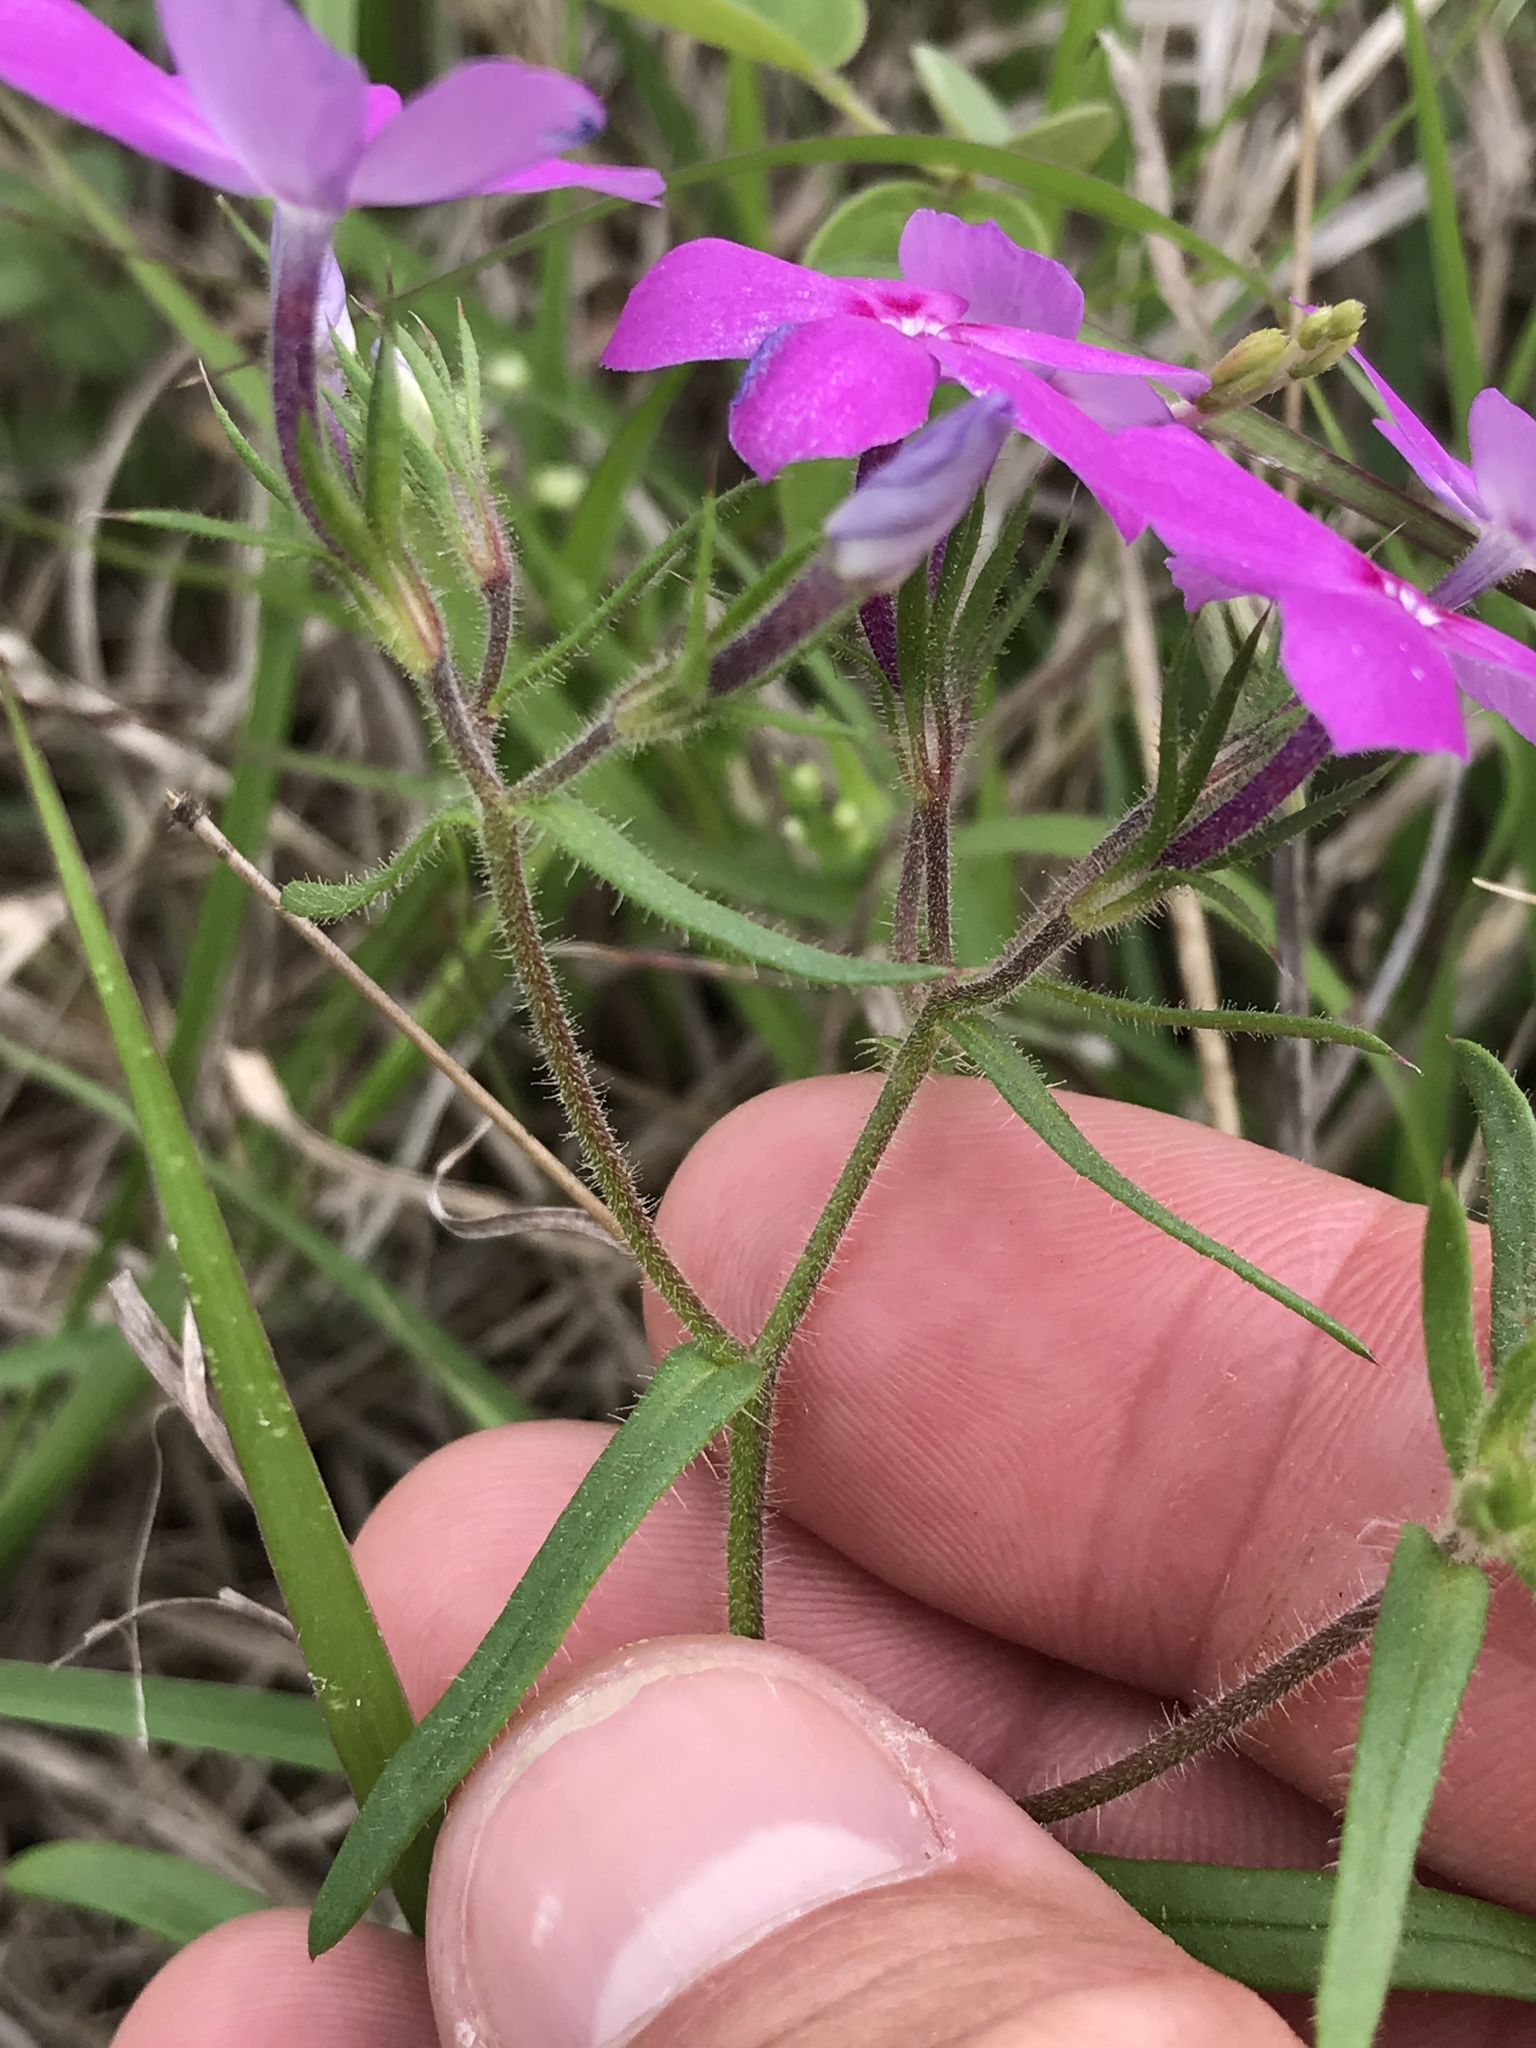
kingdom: Plantae
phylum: Tracheophyta
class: Magnoliopsida
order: Ericales
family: Polemoniaceae
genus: Phlox
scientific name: Phlox cuspidata
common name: Pointed phlox
